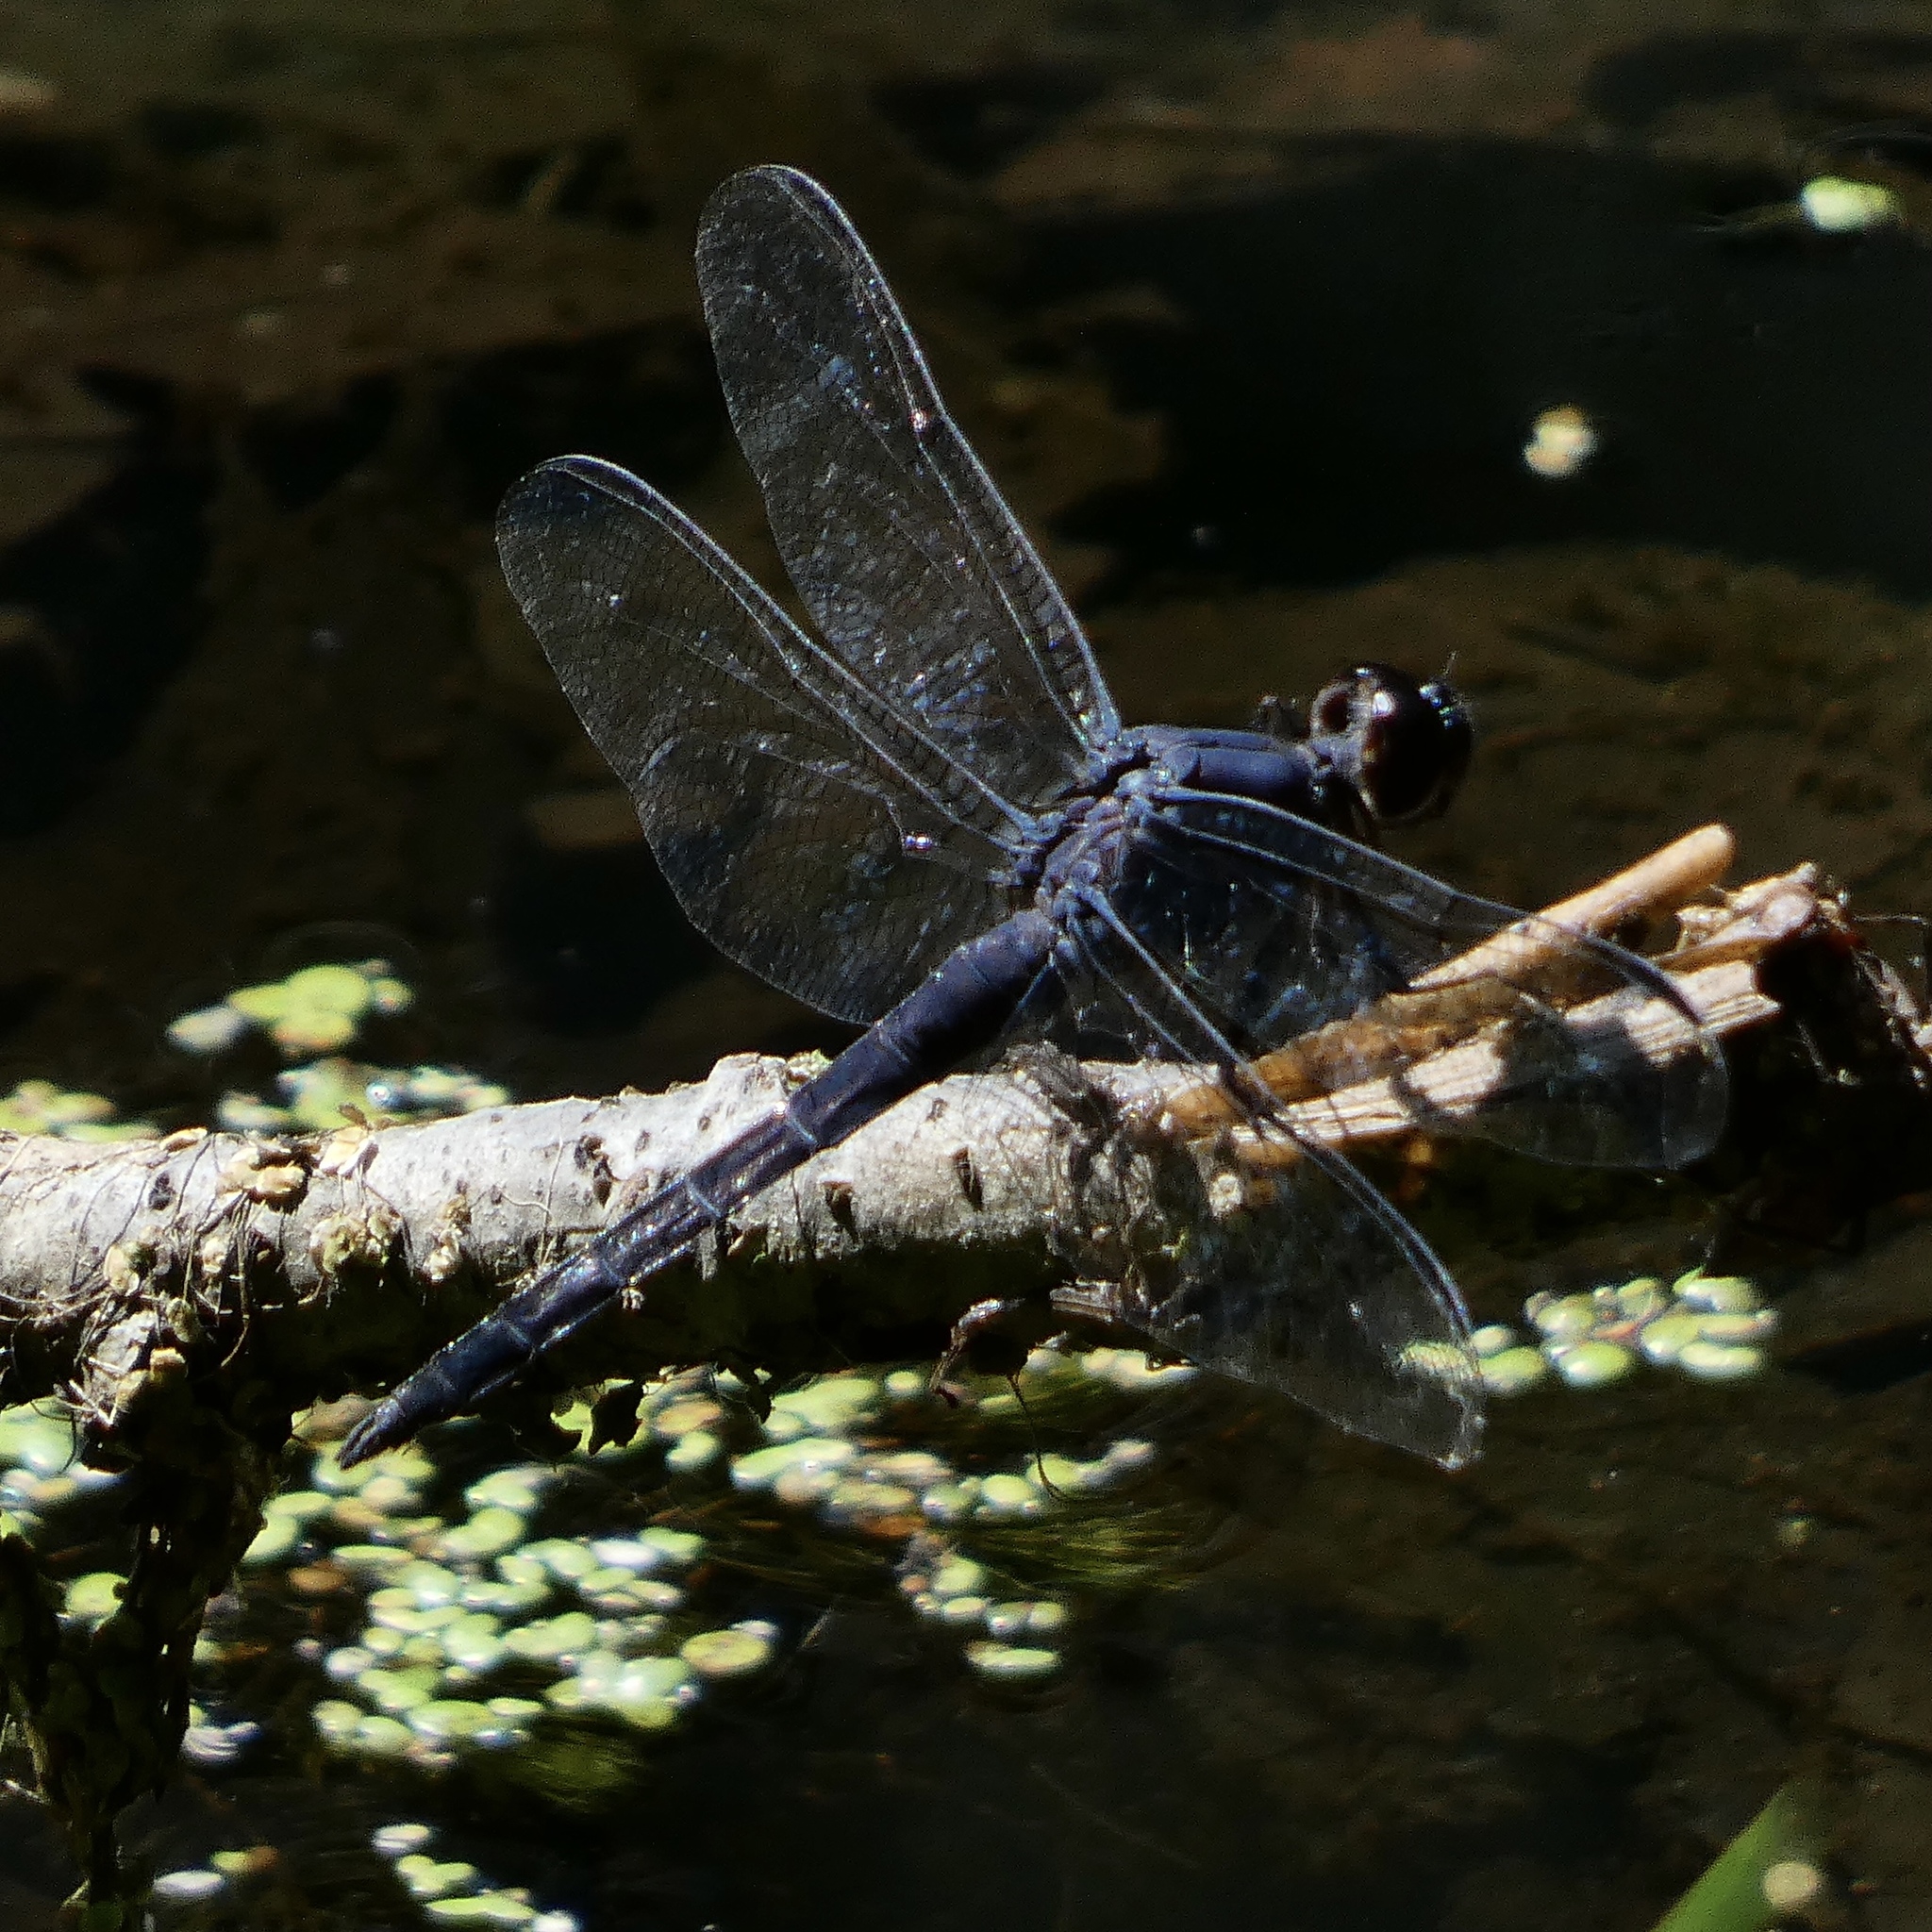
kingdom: Animalia
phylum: Arthropoda
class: Insecta
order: Odonata
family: Libellulidae
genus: Libellula
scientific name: Libellula incesta
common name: Slaty skimmer
